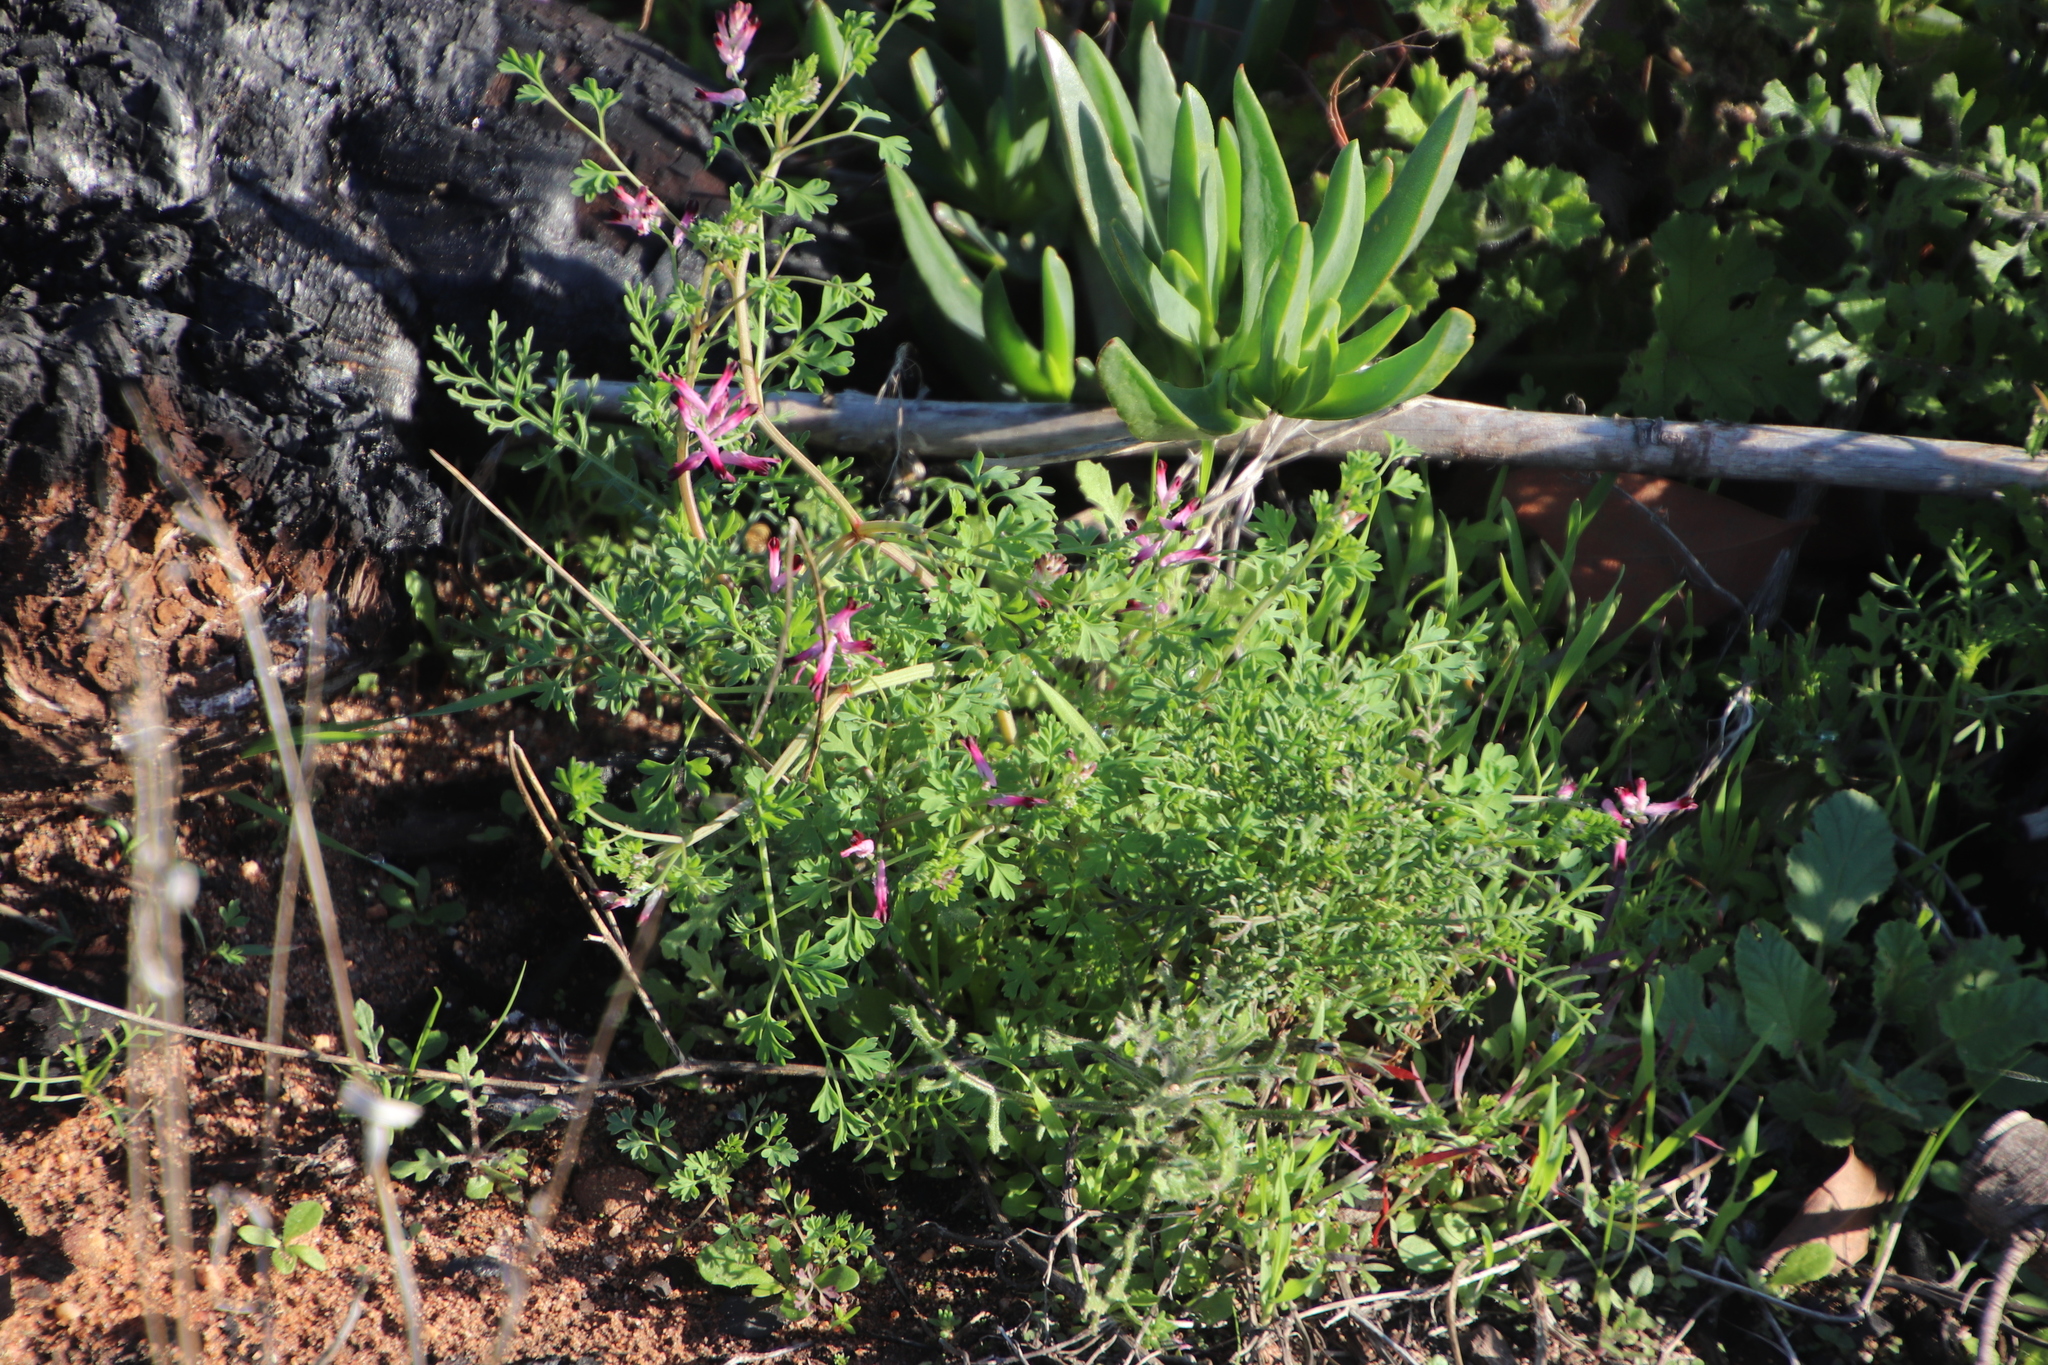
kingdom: Plantae
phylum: Tracheophyta
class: Magnoliopsida
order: Ranunculales
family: Papaveraceae
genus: Fumaria
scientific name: Fumaria muralis
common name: Common ramping-fumitory
